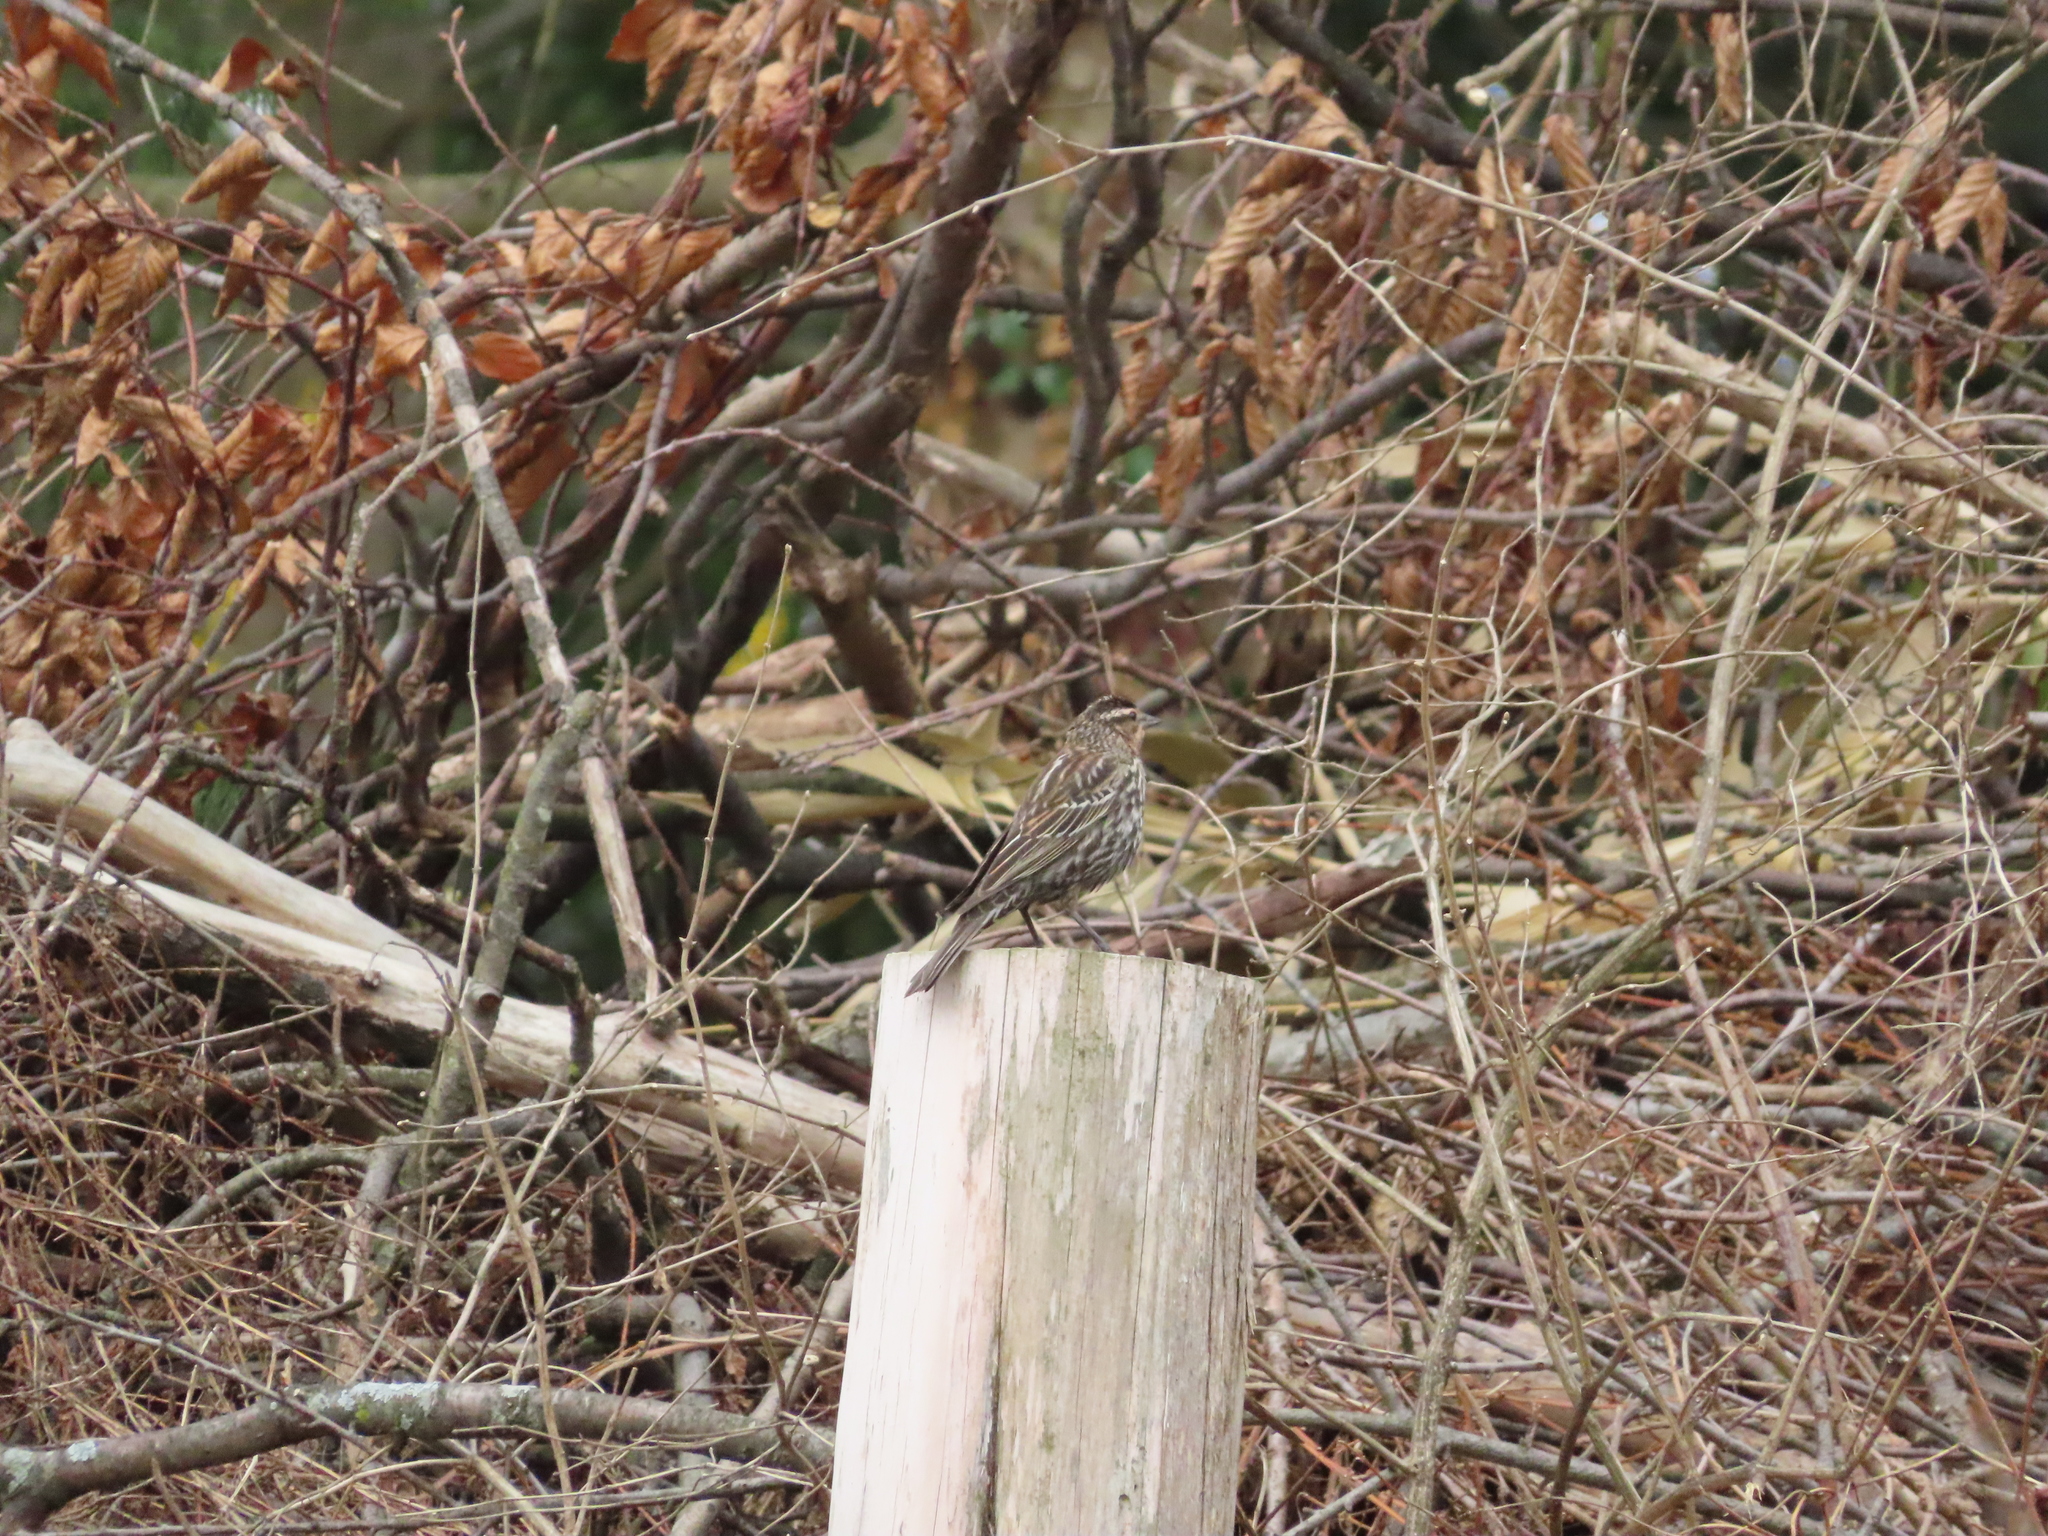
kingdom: Animalia
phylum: Chordata
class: Aves
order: Passeriformes
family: Icteridae
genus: Agelaius
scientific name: Agelaius phoeniceus
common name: Red-winged blackbird
